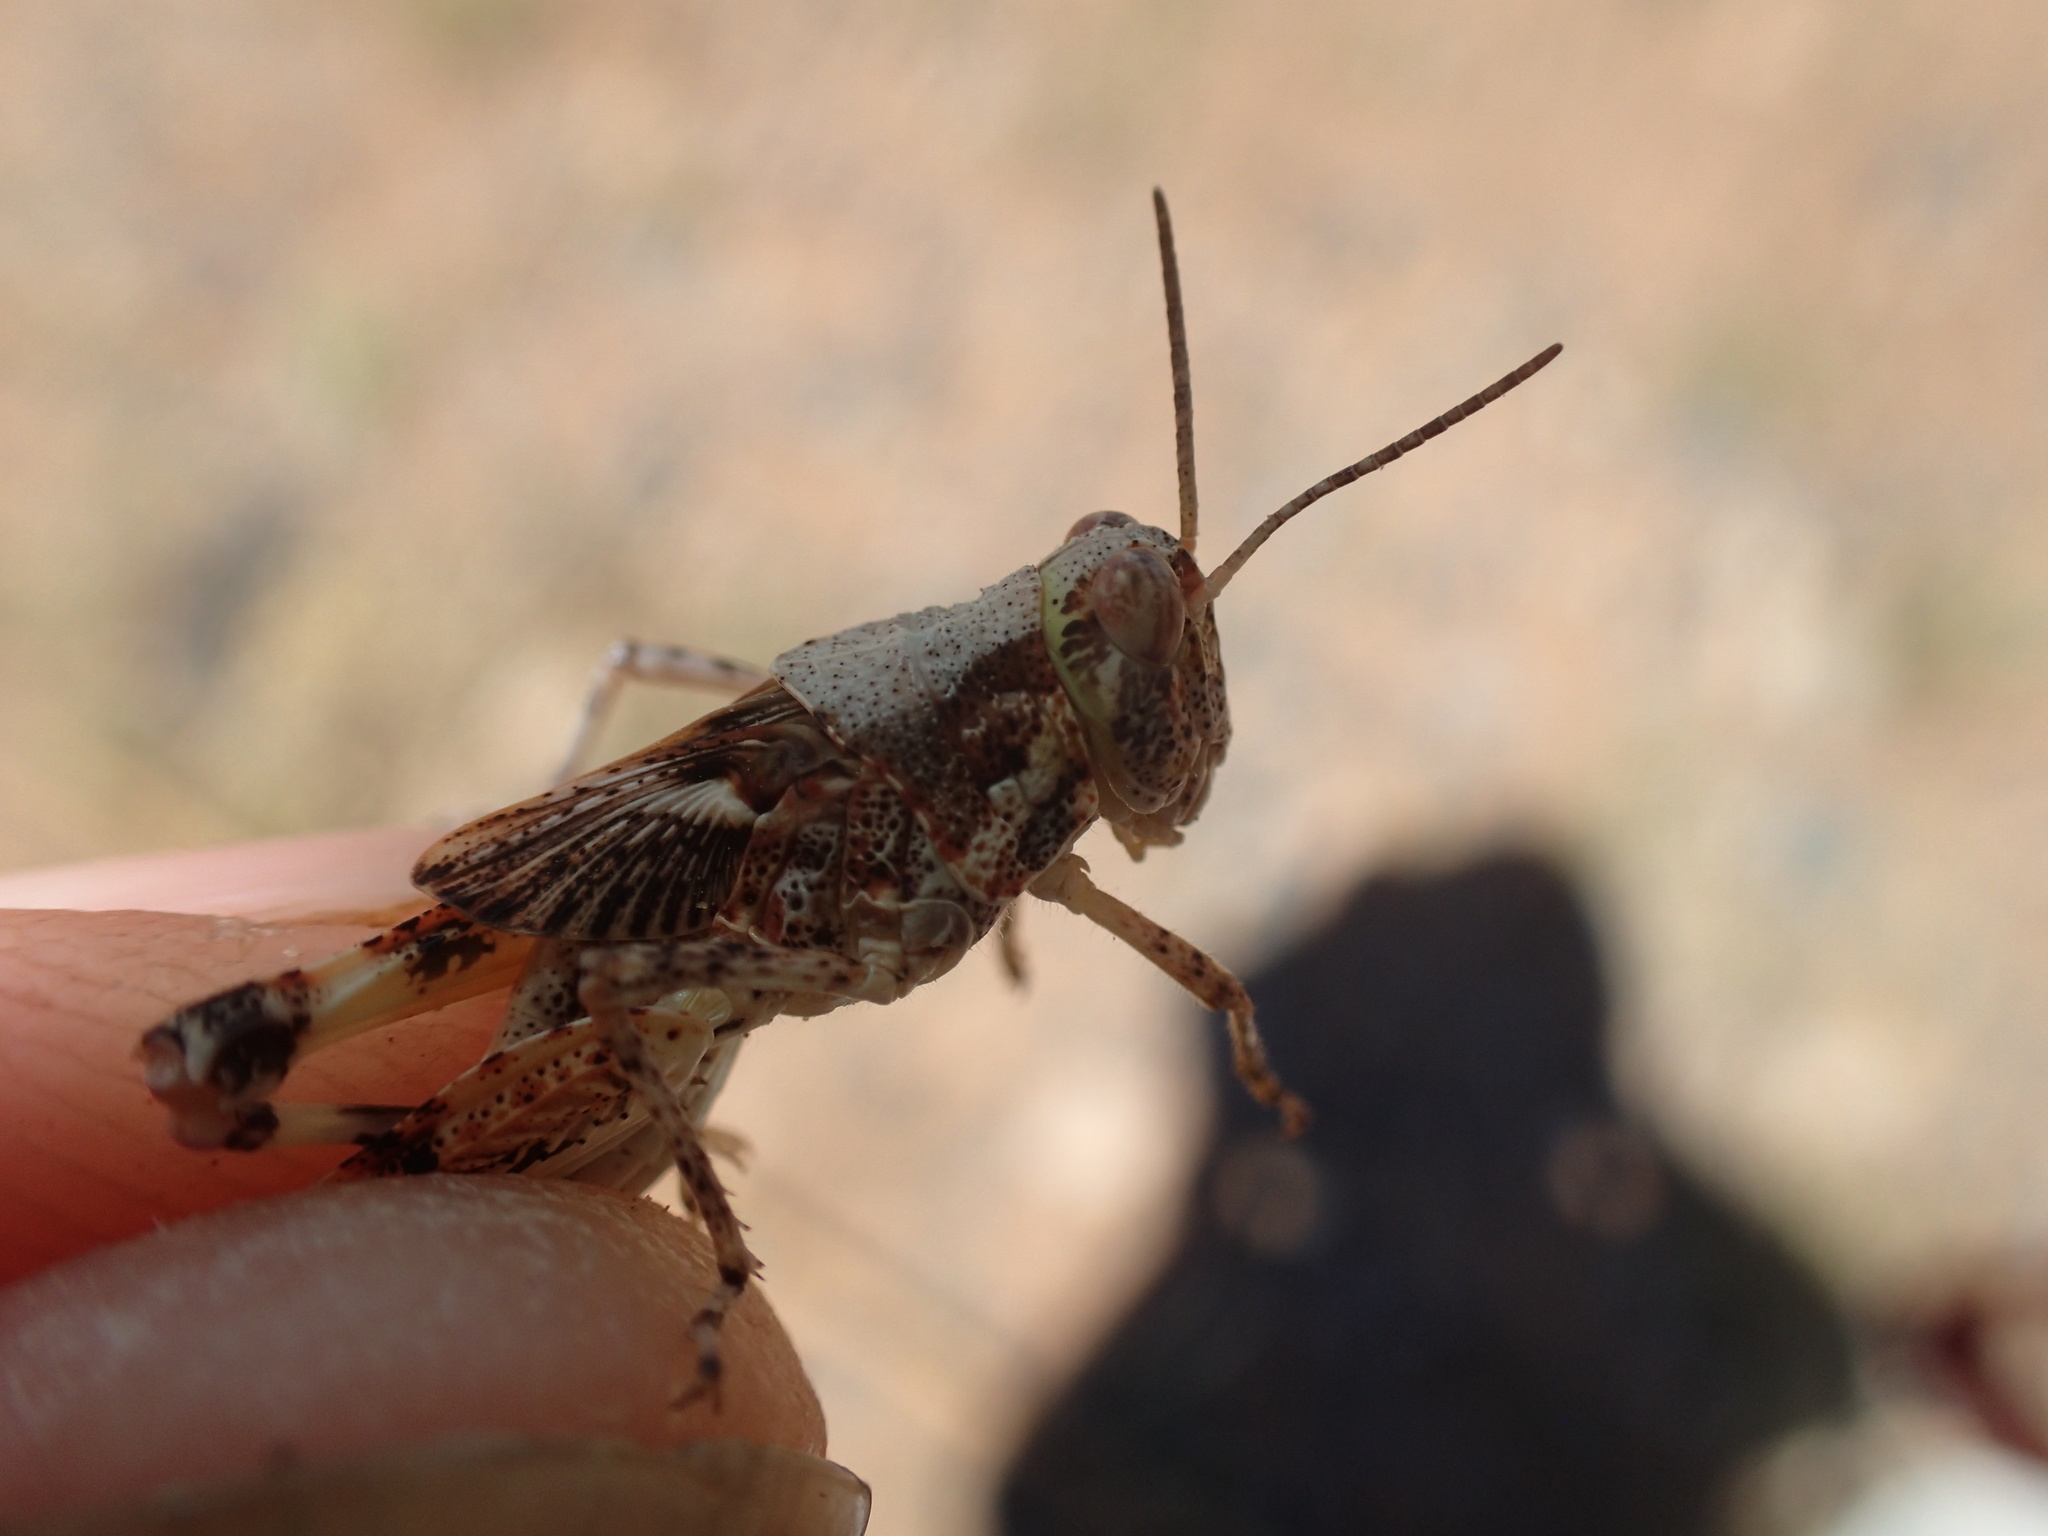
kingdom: Animalia
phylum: Arthropoda
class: Insecta
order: Orthoptera
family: Acrididae
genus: Urnisa
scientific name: Urnisa guttulosa
